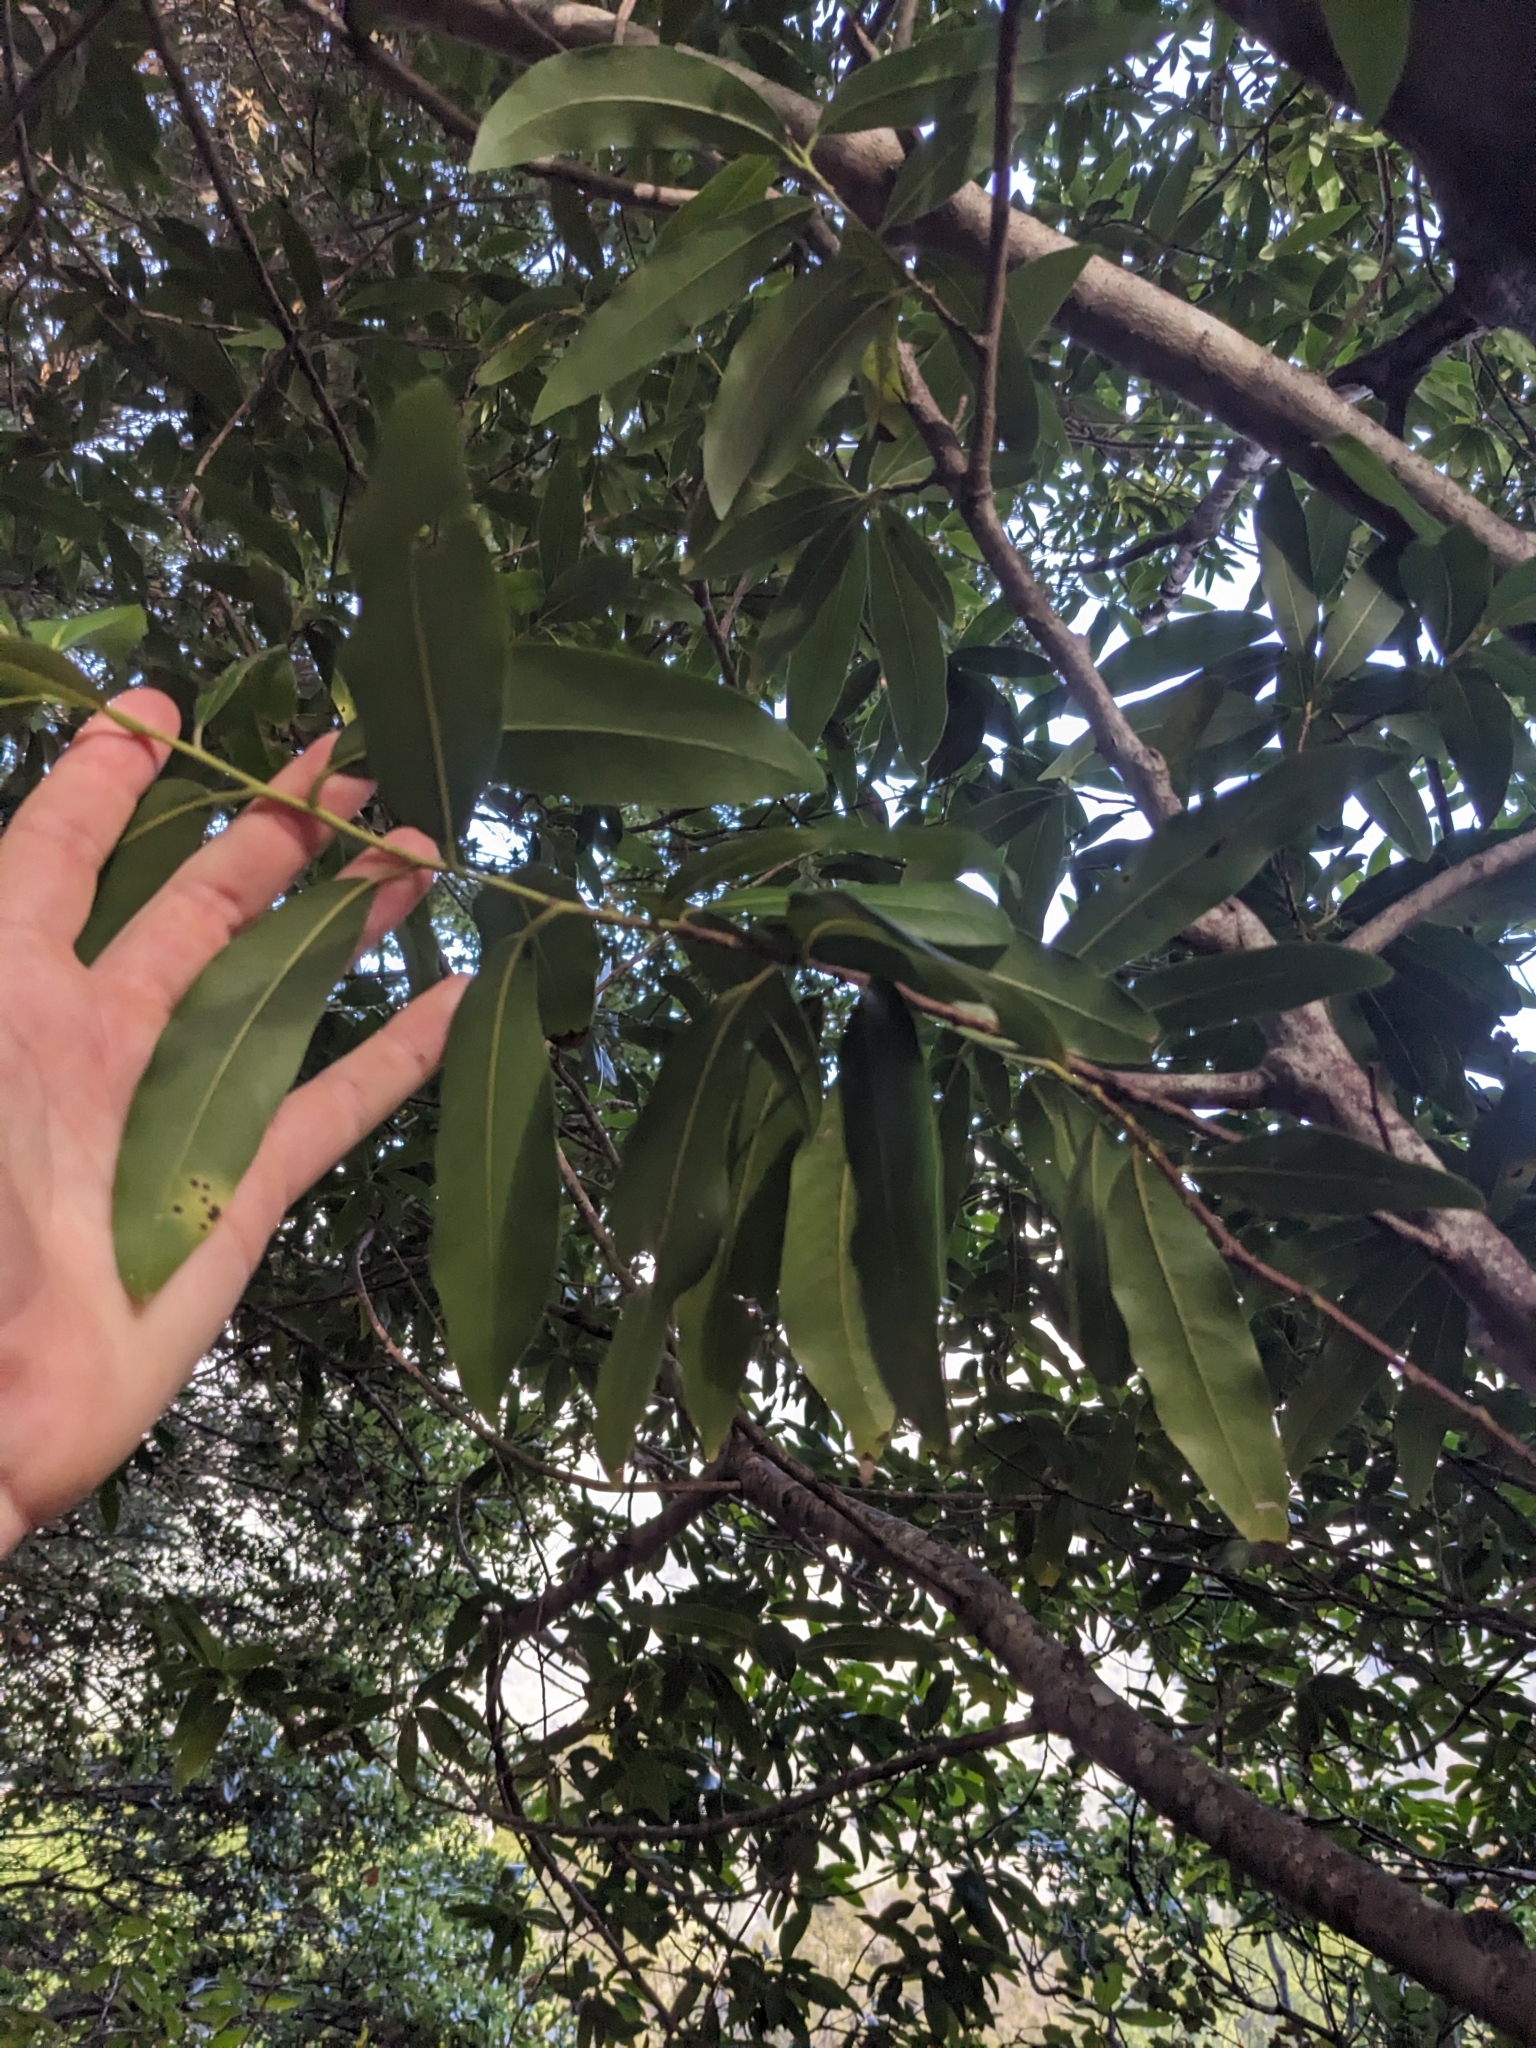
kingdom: Plantae
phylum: Tracheophyta
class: Magnoliopsida
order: Laurales
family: Lauraceae
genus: Umbellularia
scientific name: Umbellularia californica
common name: California bay
